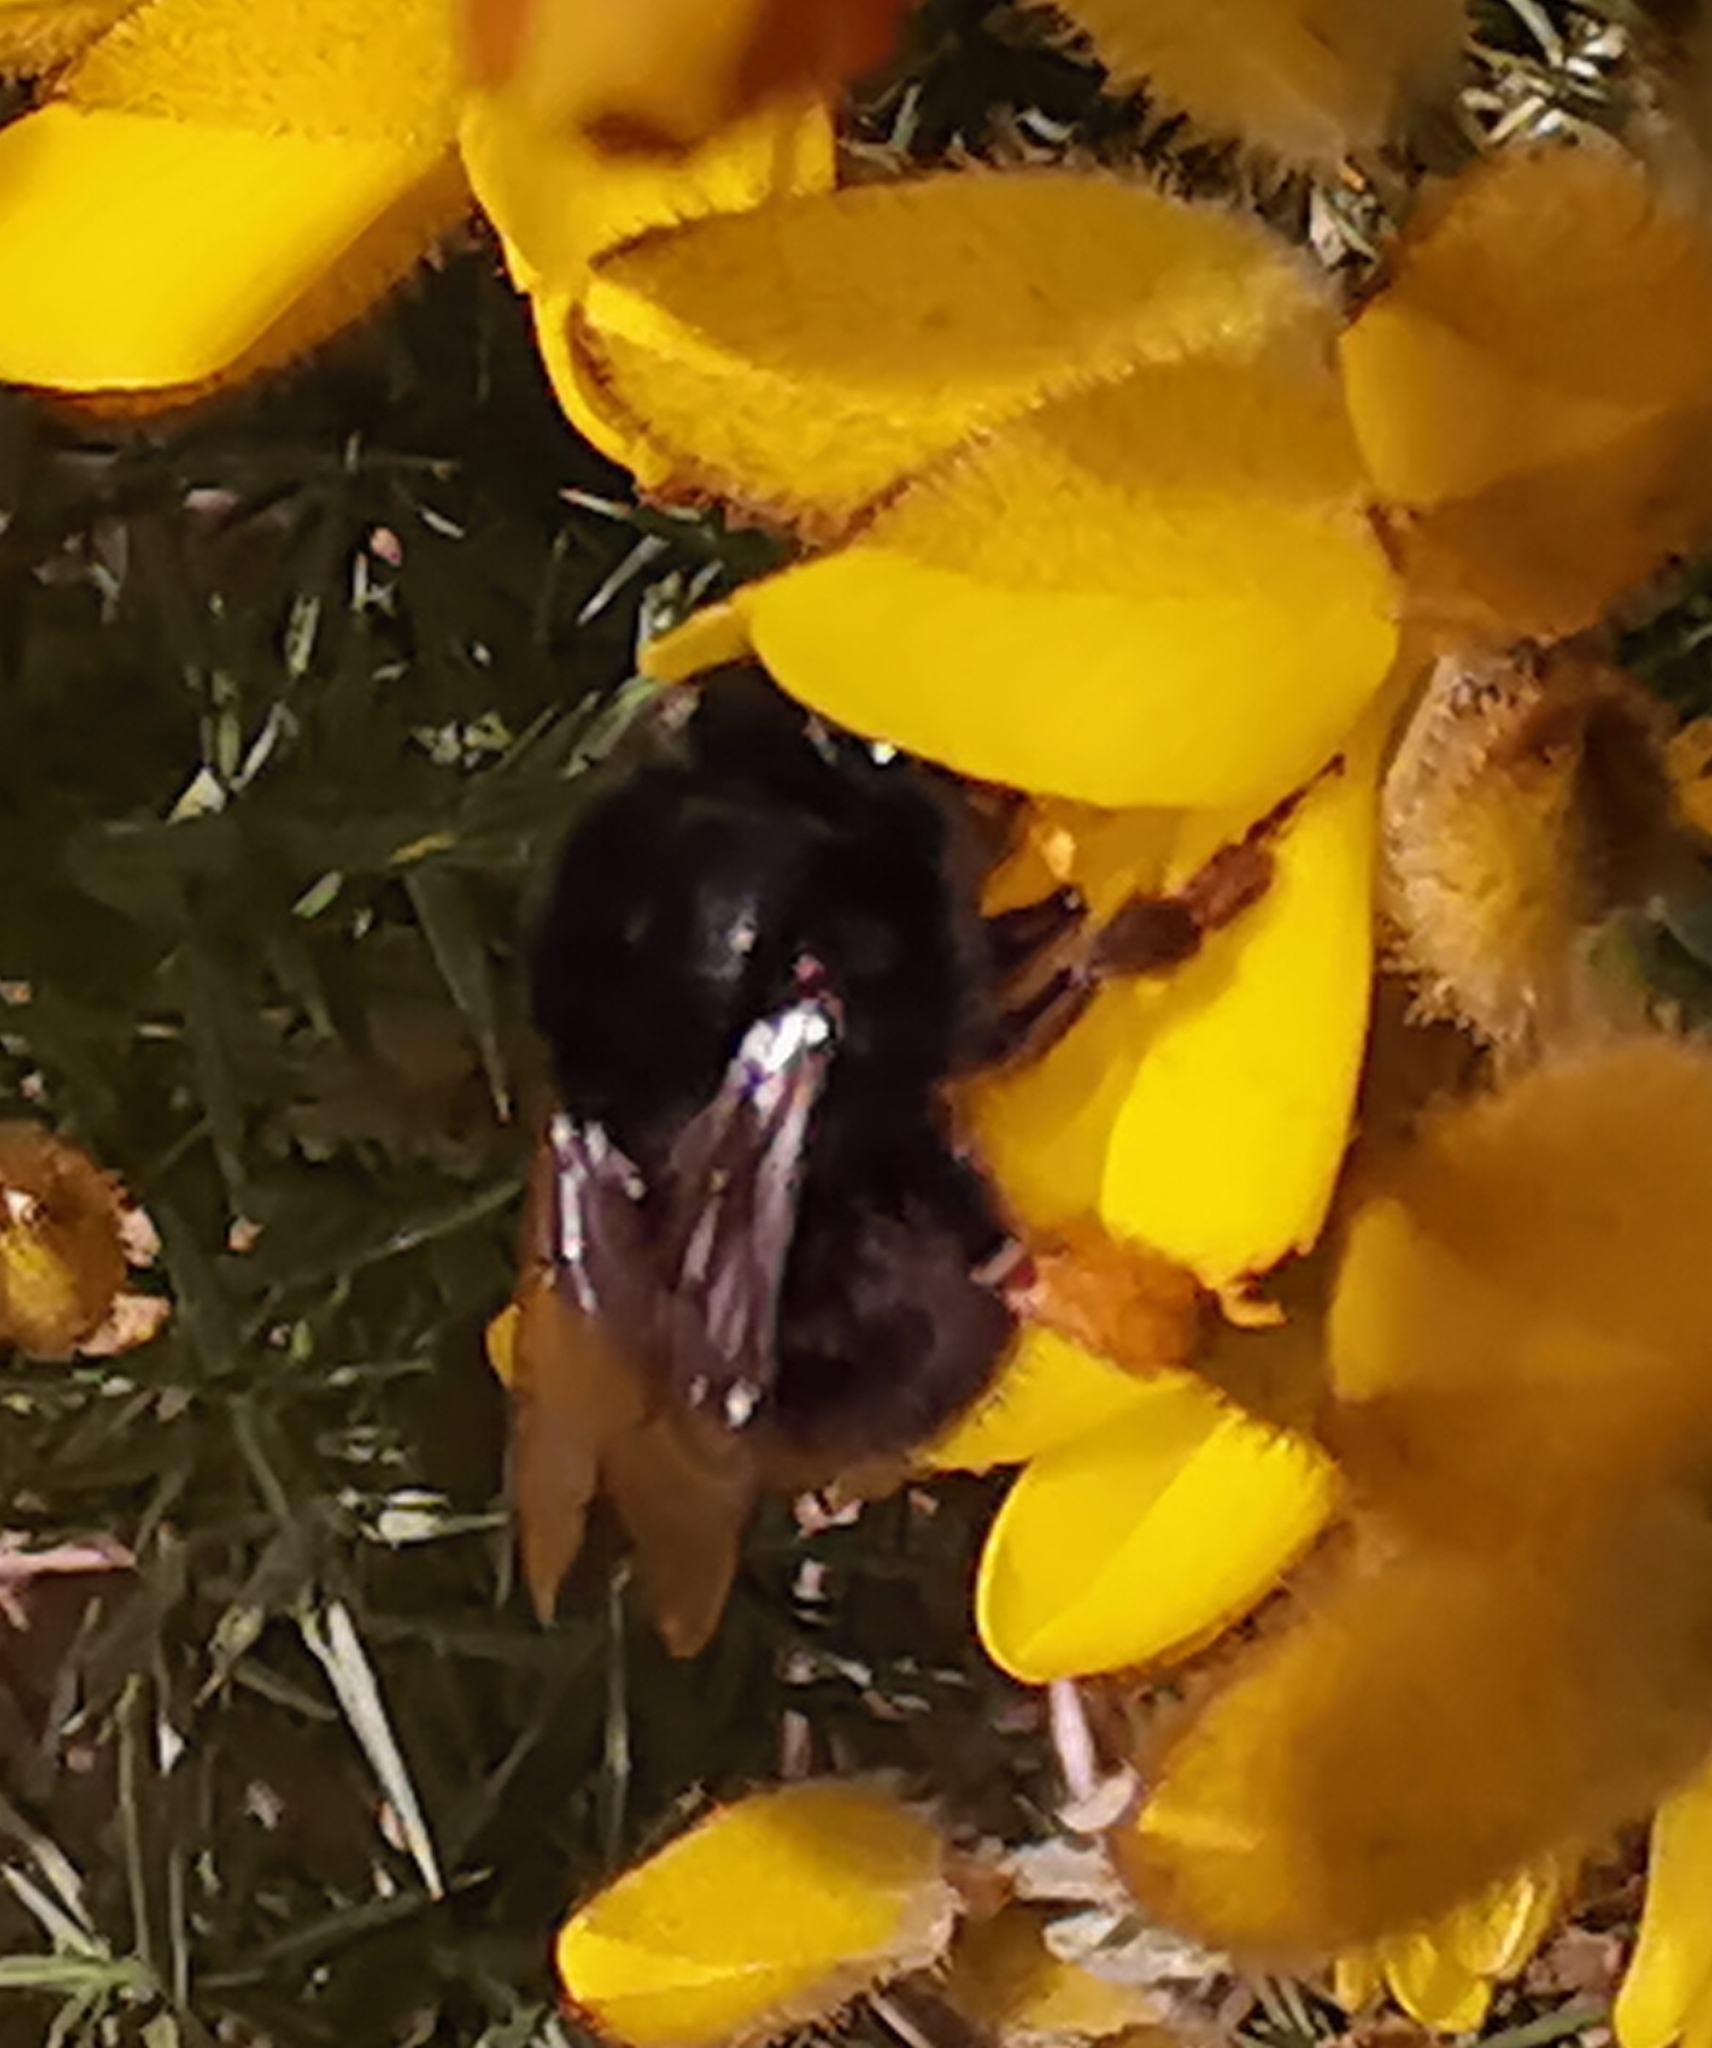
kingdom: Animalia
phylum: Arthropoda
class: Insecta
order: Hymenoptera
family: Apidae
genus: Anthophora
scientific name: Anthophora plumipes
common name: Hairy-footed flower bee
